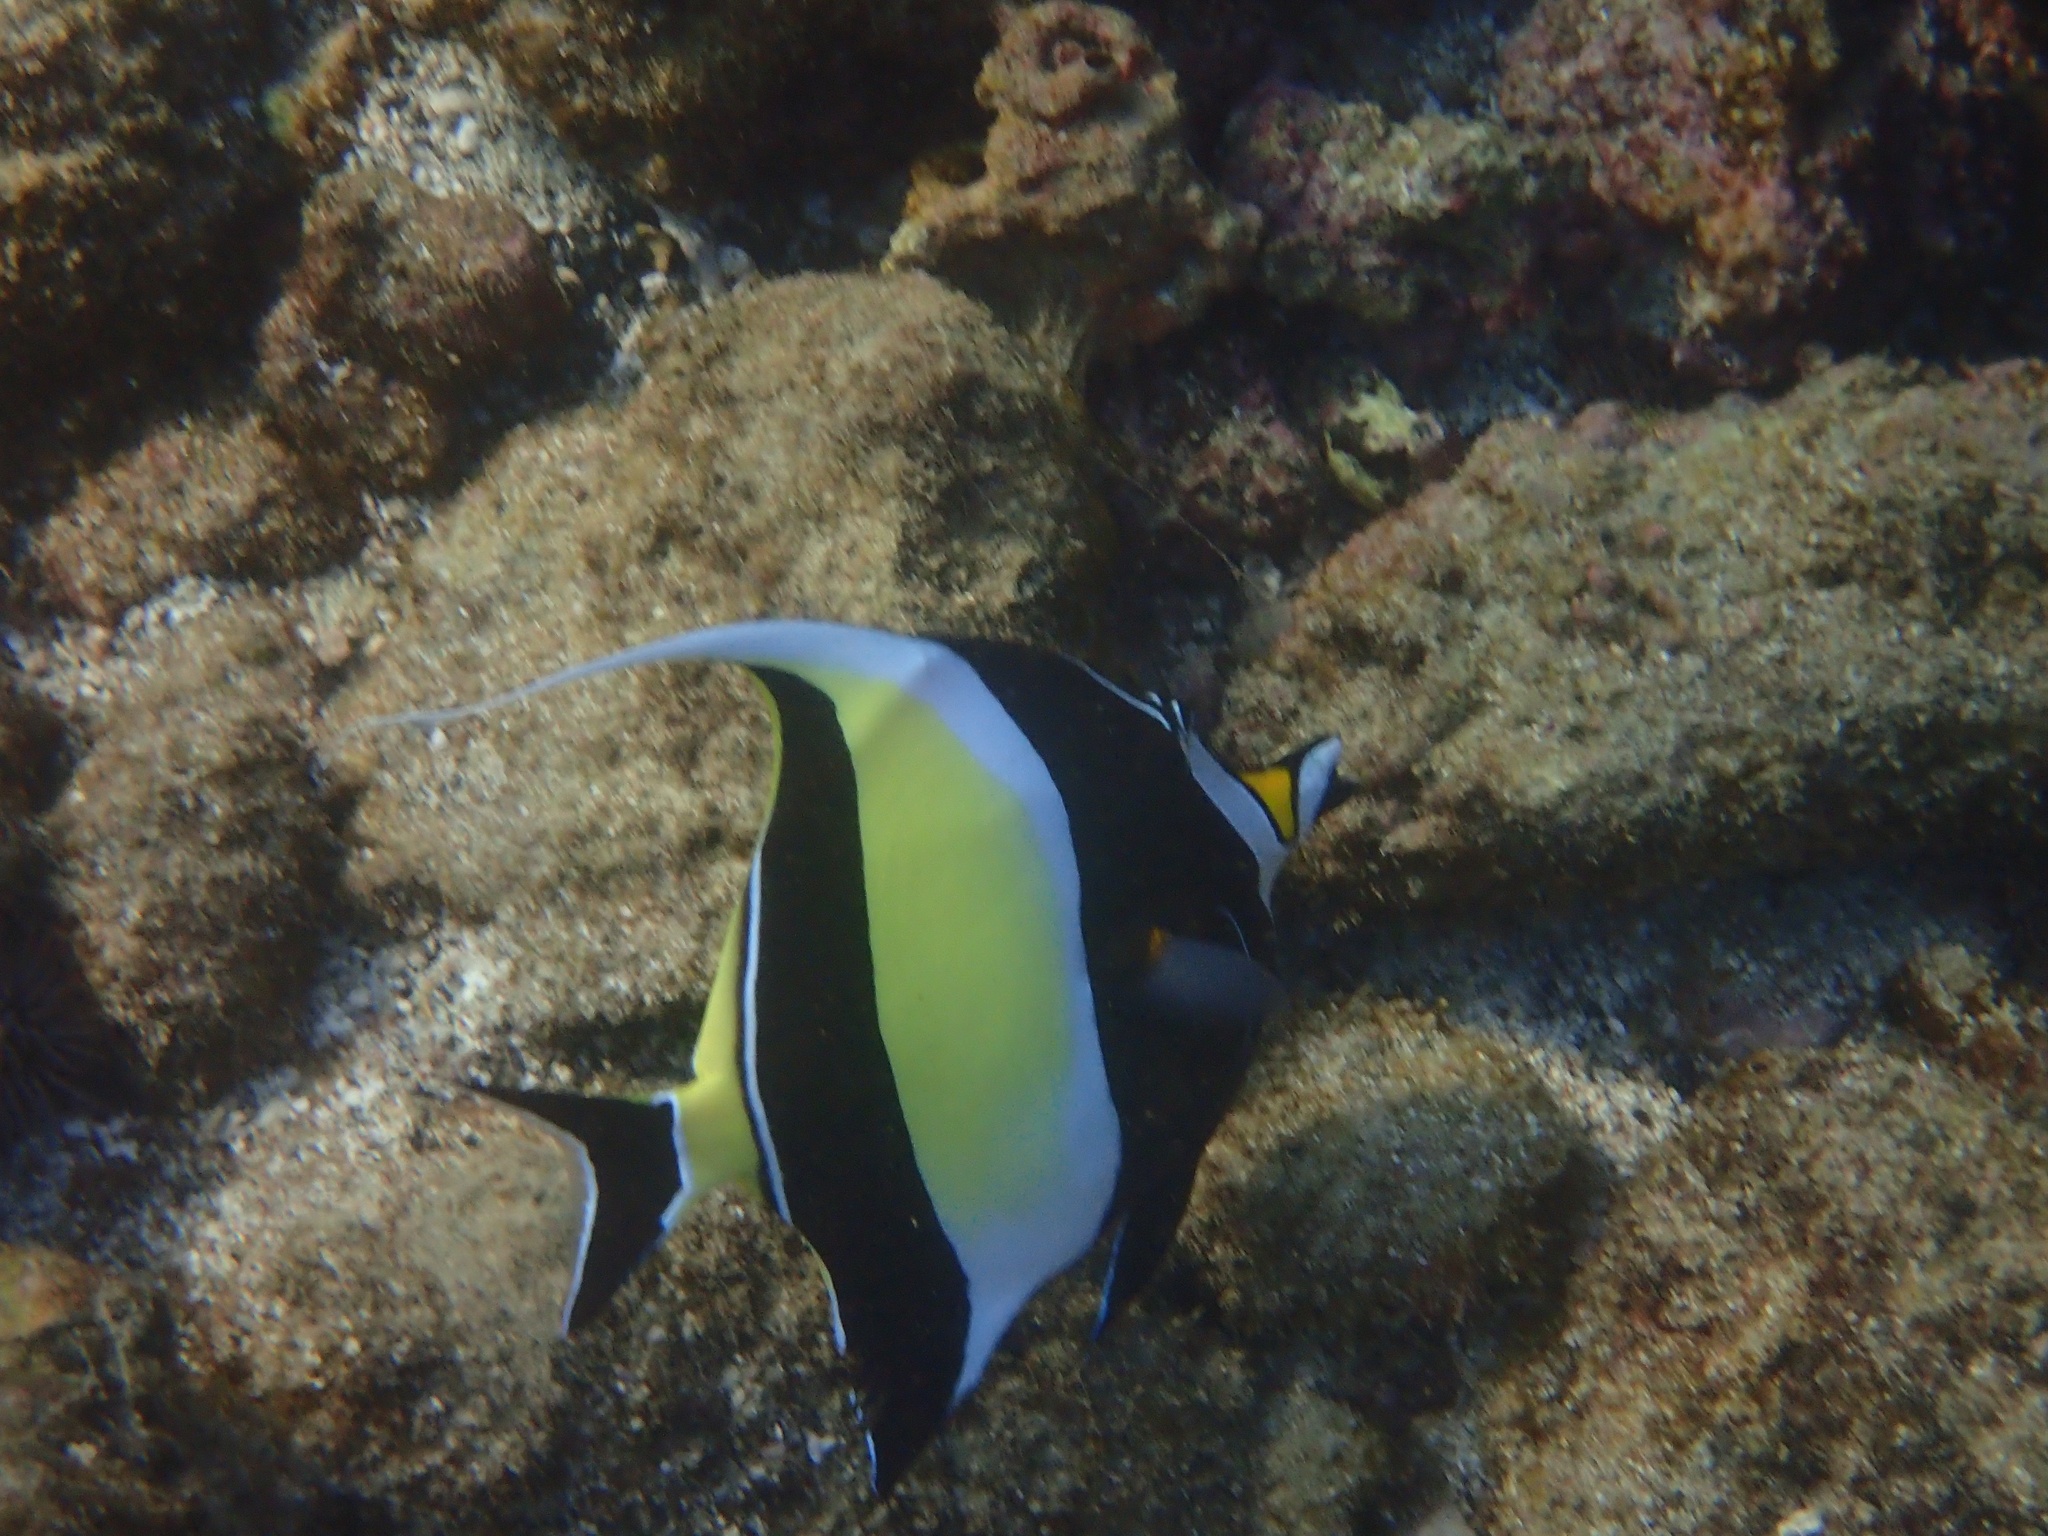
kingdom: Animalia
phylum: Chordata
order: Perciformes
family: Zanclidae
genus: Zanclus
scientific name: Zanclus cornutus
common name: Moorish idol
